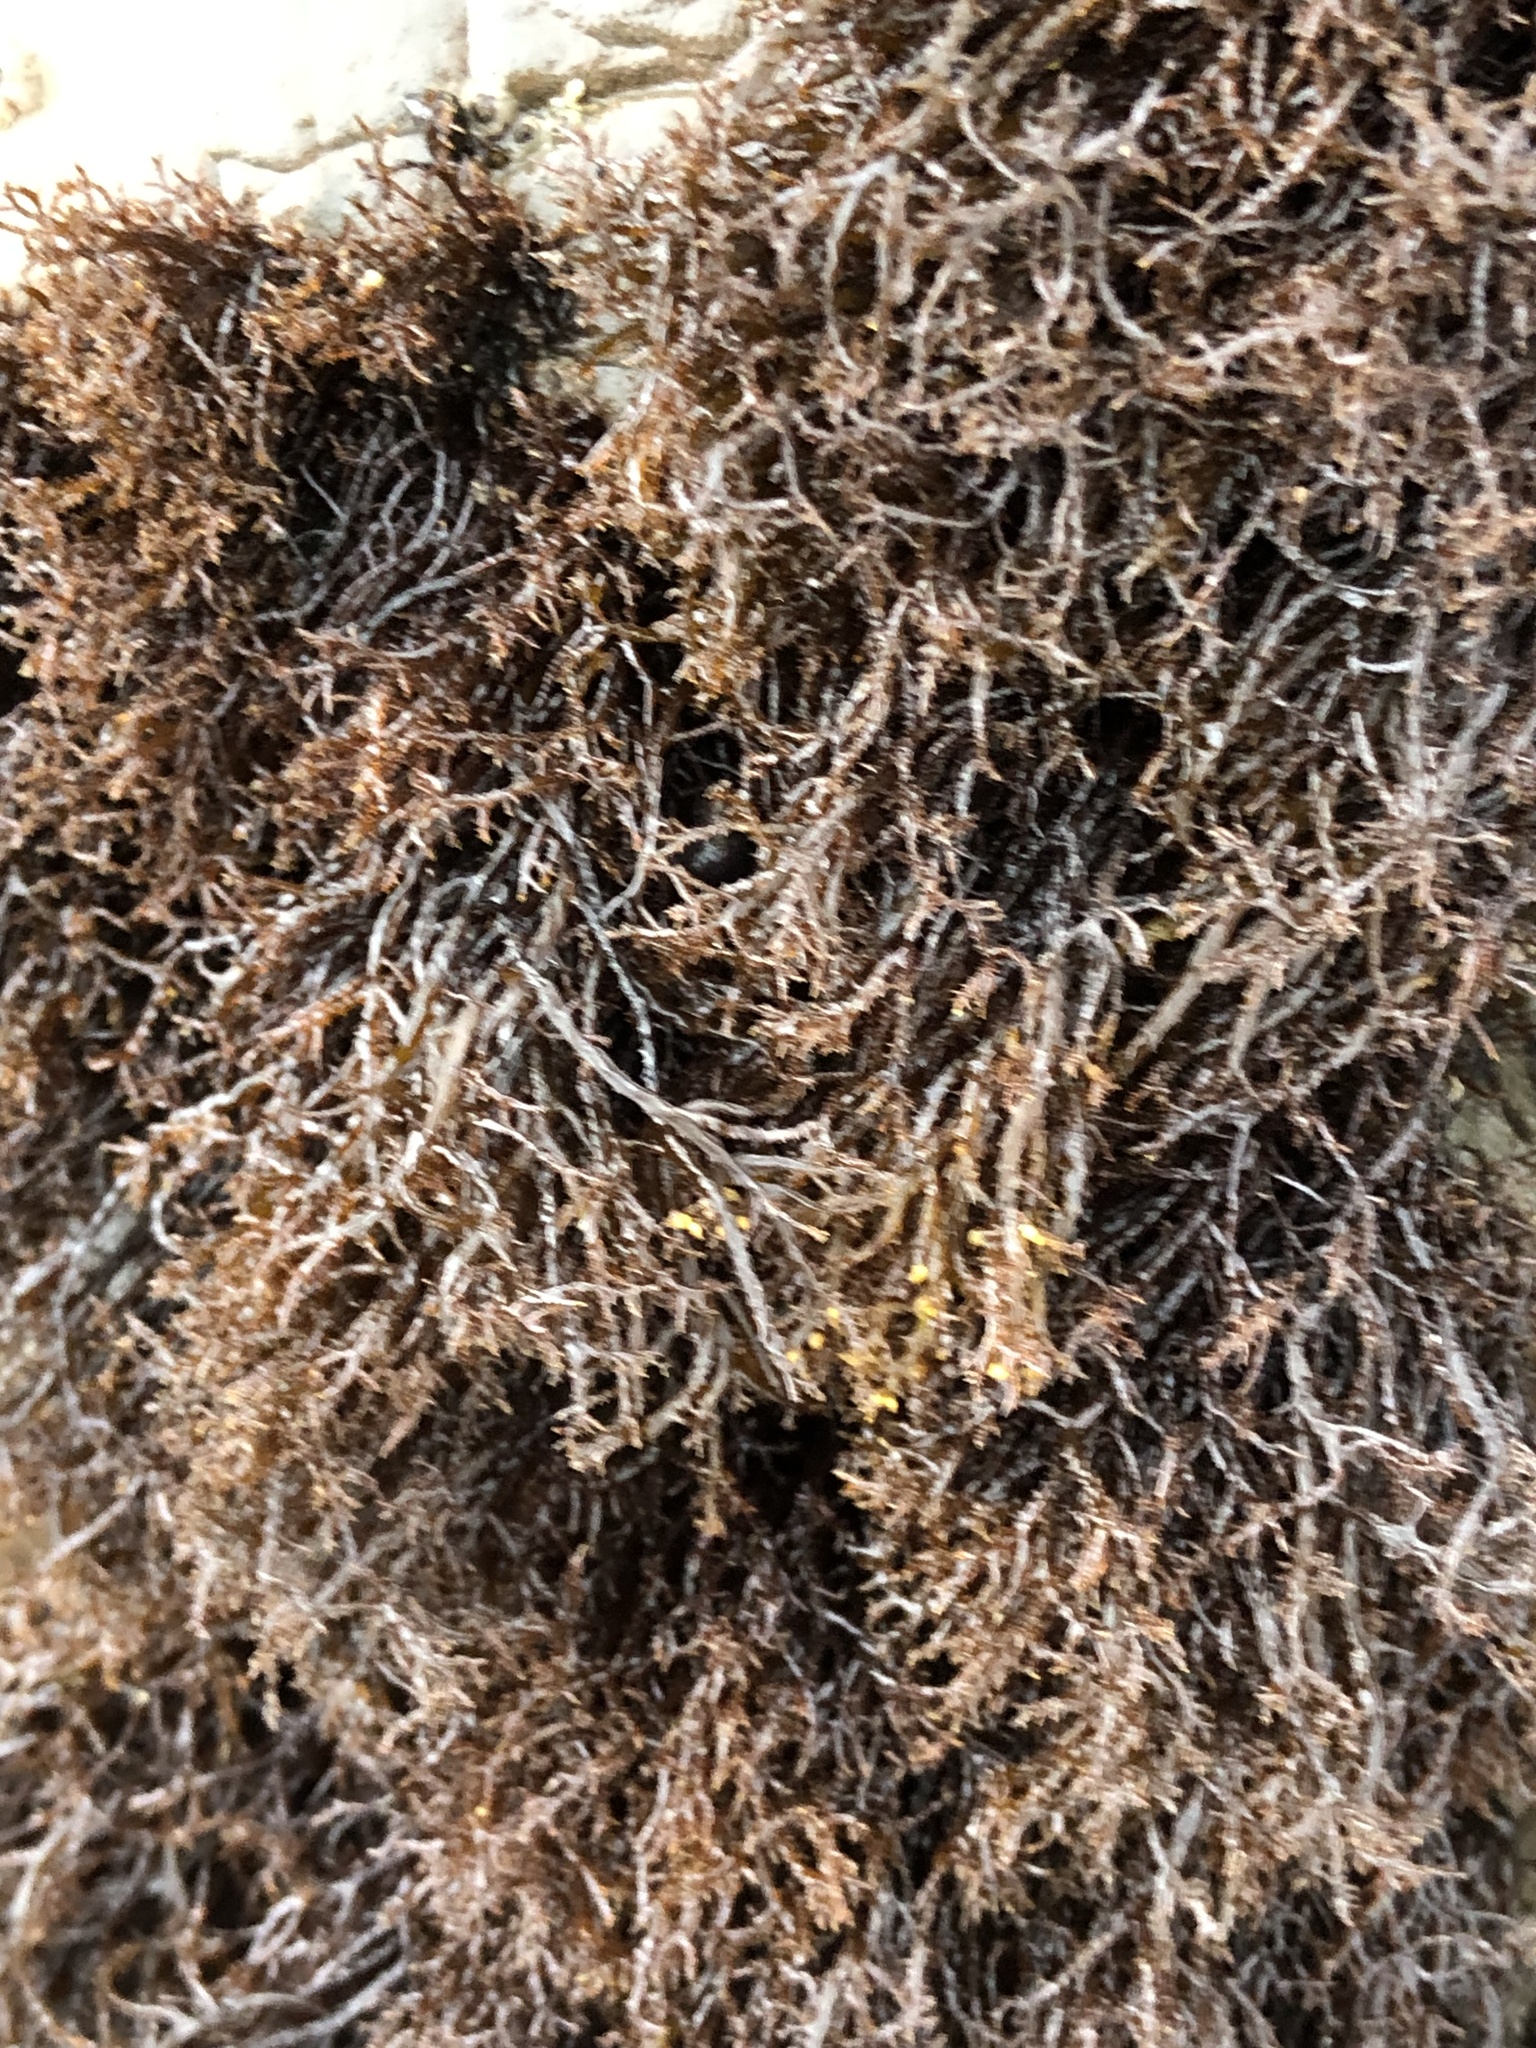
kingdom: Plantae
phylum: Rhodophyta
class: Florideophyceae
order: Gigartinales
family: Endocladiaceae
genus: Endocladia
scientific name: Endocladia muricata
